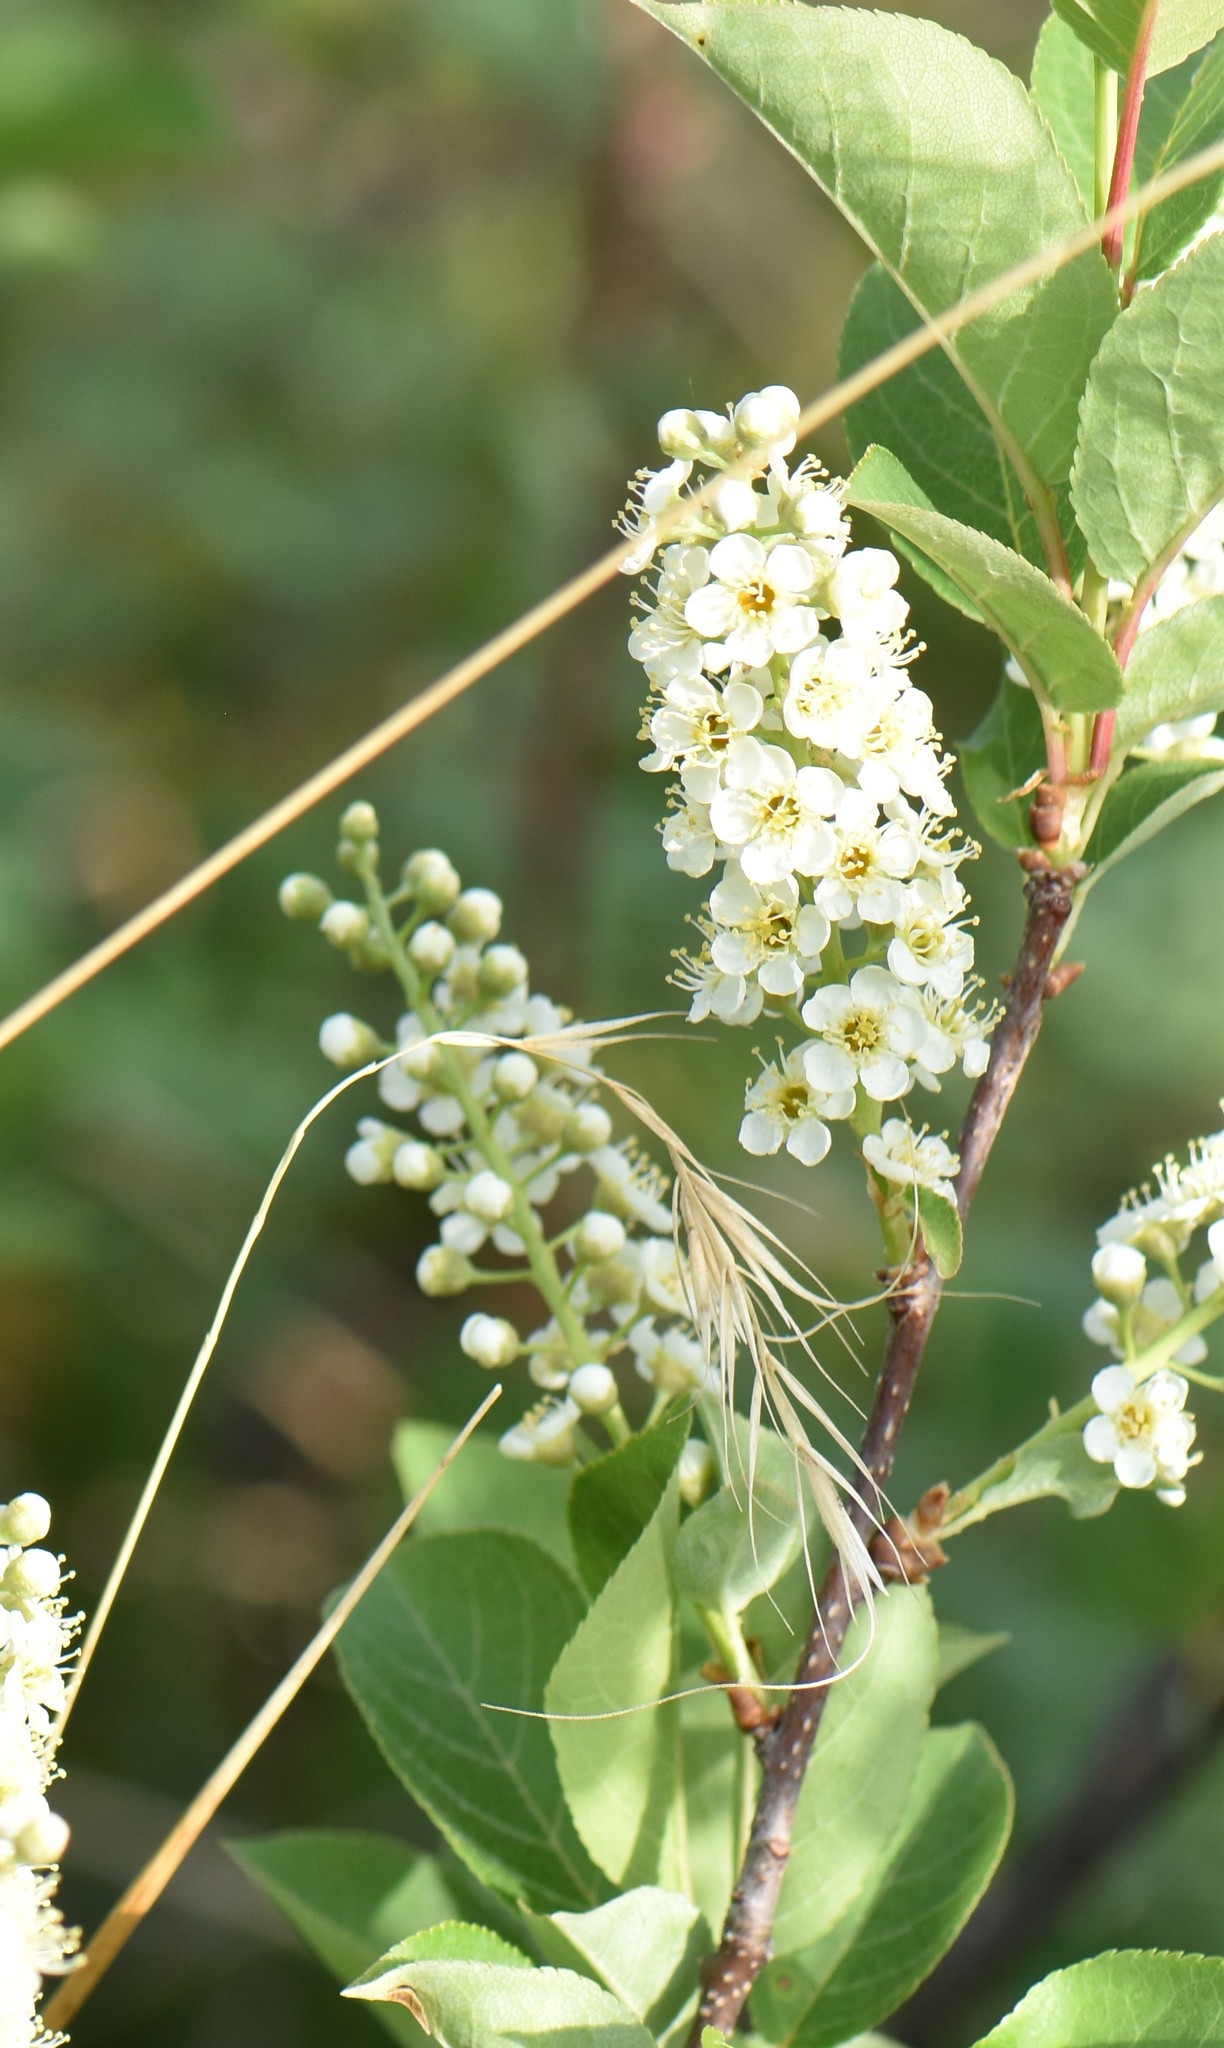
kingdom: Plantae
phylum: Tracheophyta
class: Magnoliopsida
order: Rosales
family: Rosaceae
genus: Prunus
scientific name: Prunus virginiana
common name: Chokecherry
